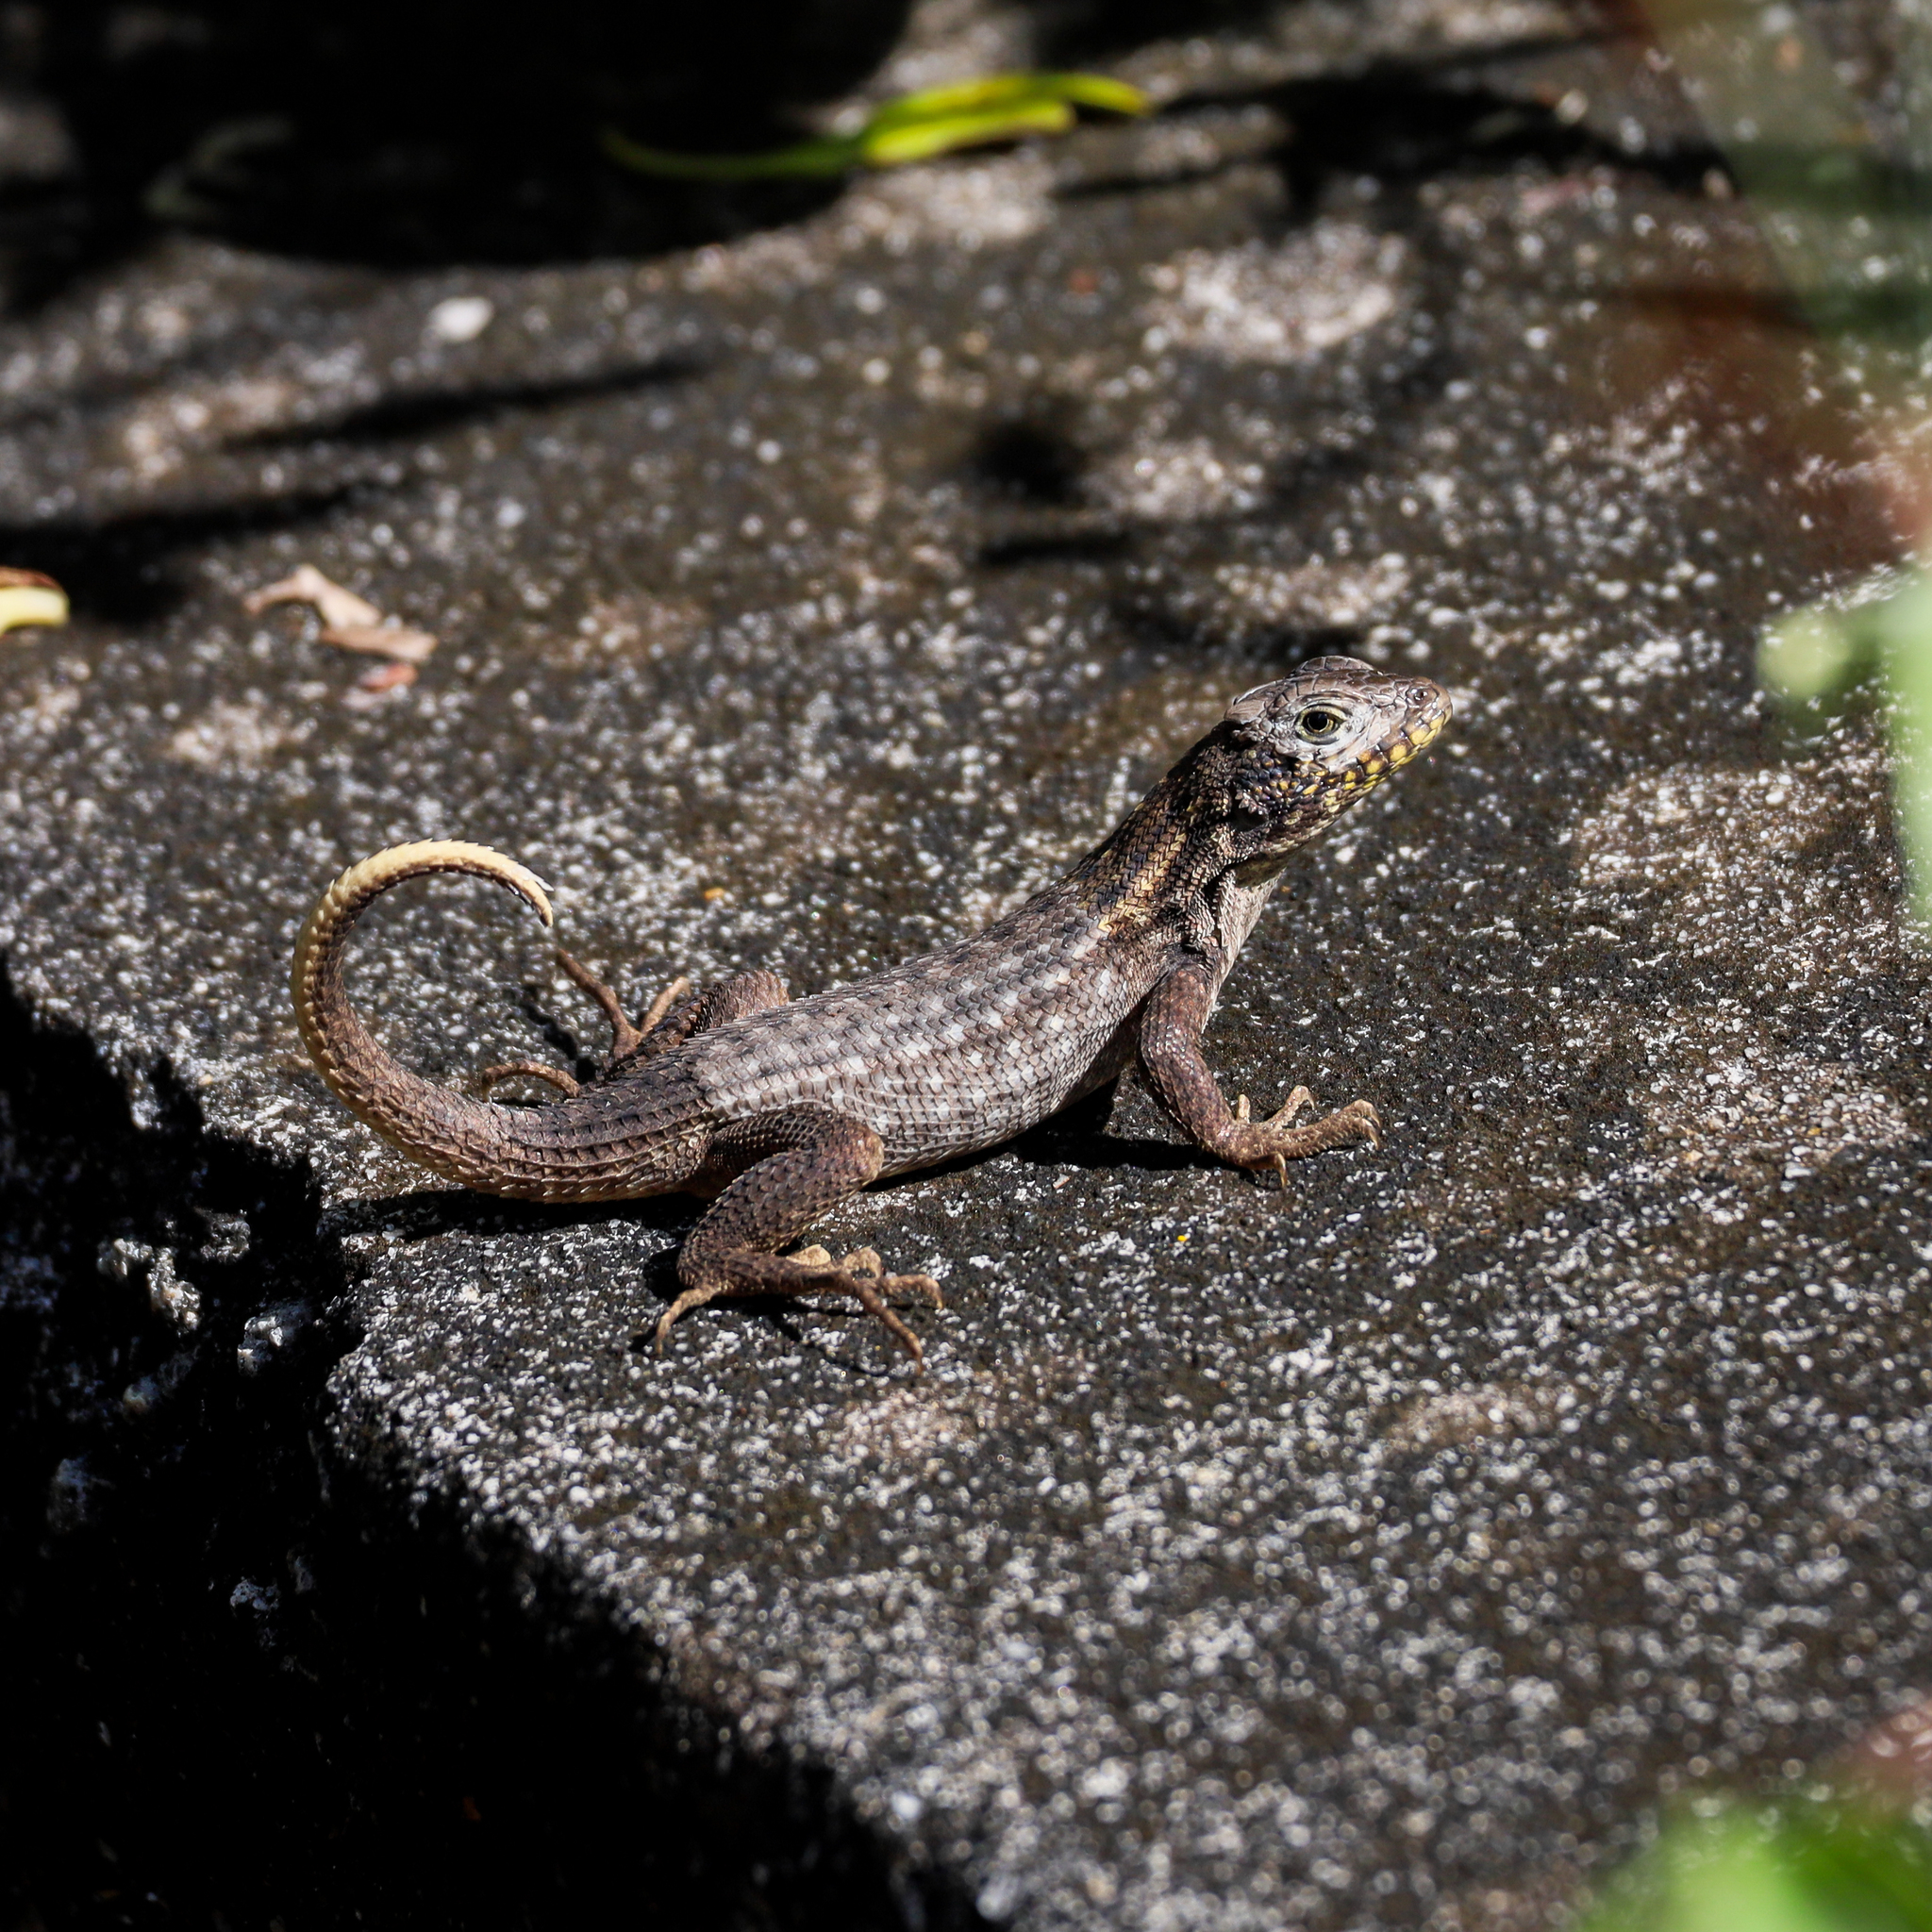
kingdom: Animalia
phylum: Chordata
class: Squamata
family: Leiocephalidae
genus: Leiocephalus
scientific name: Leiocephalus carinatus
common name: Northern curly-tailed lizard
